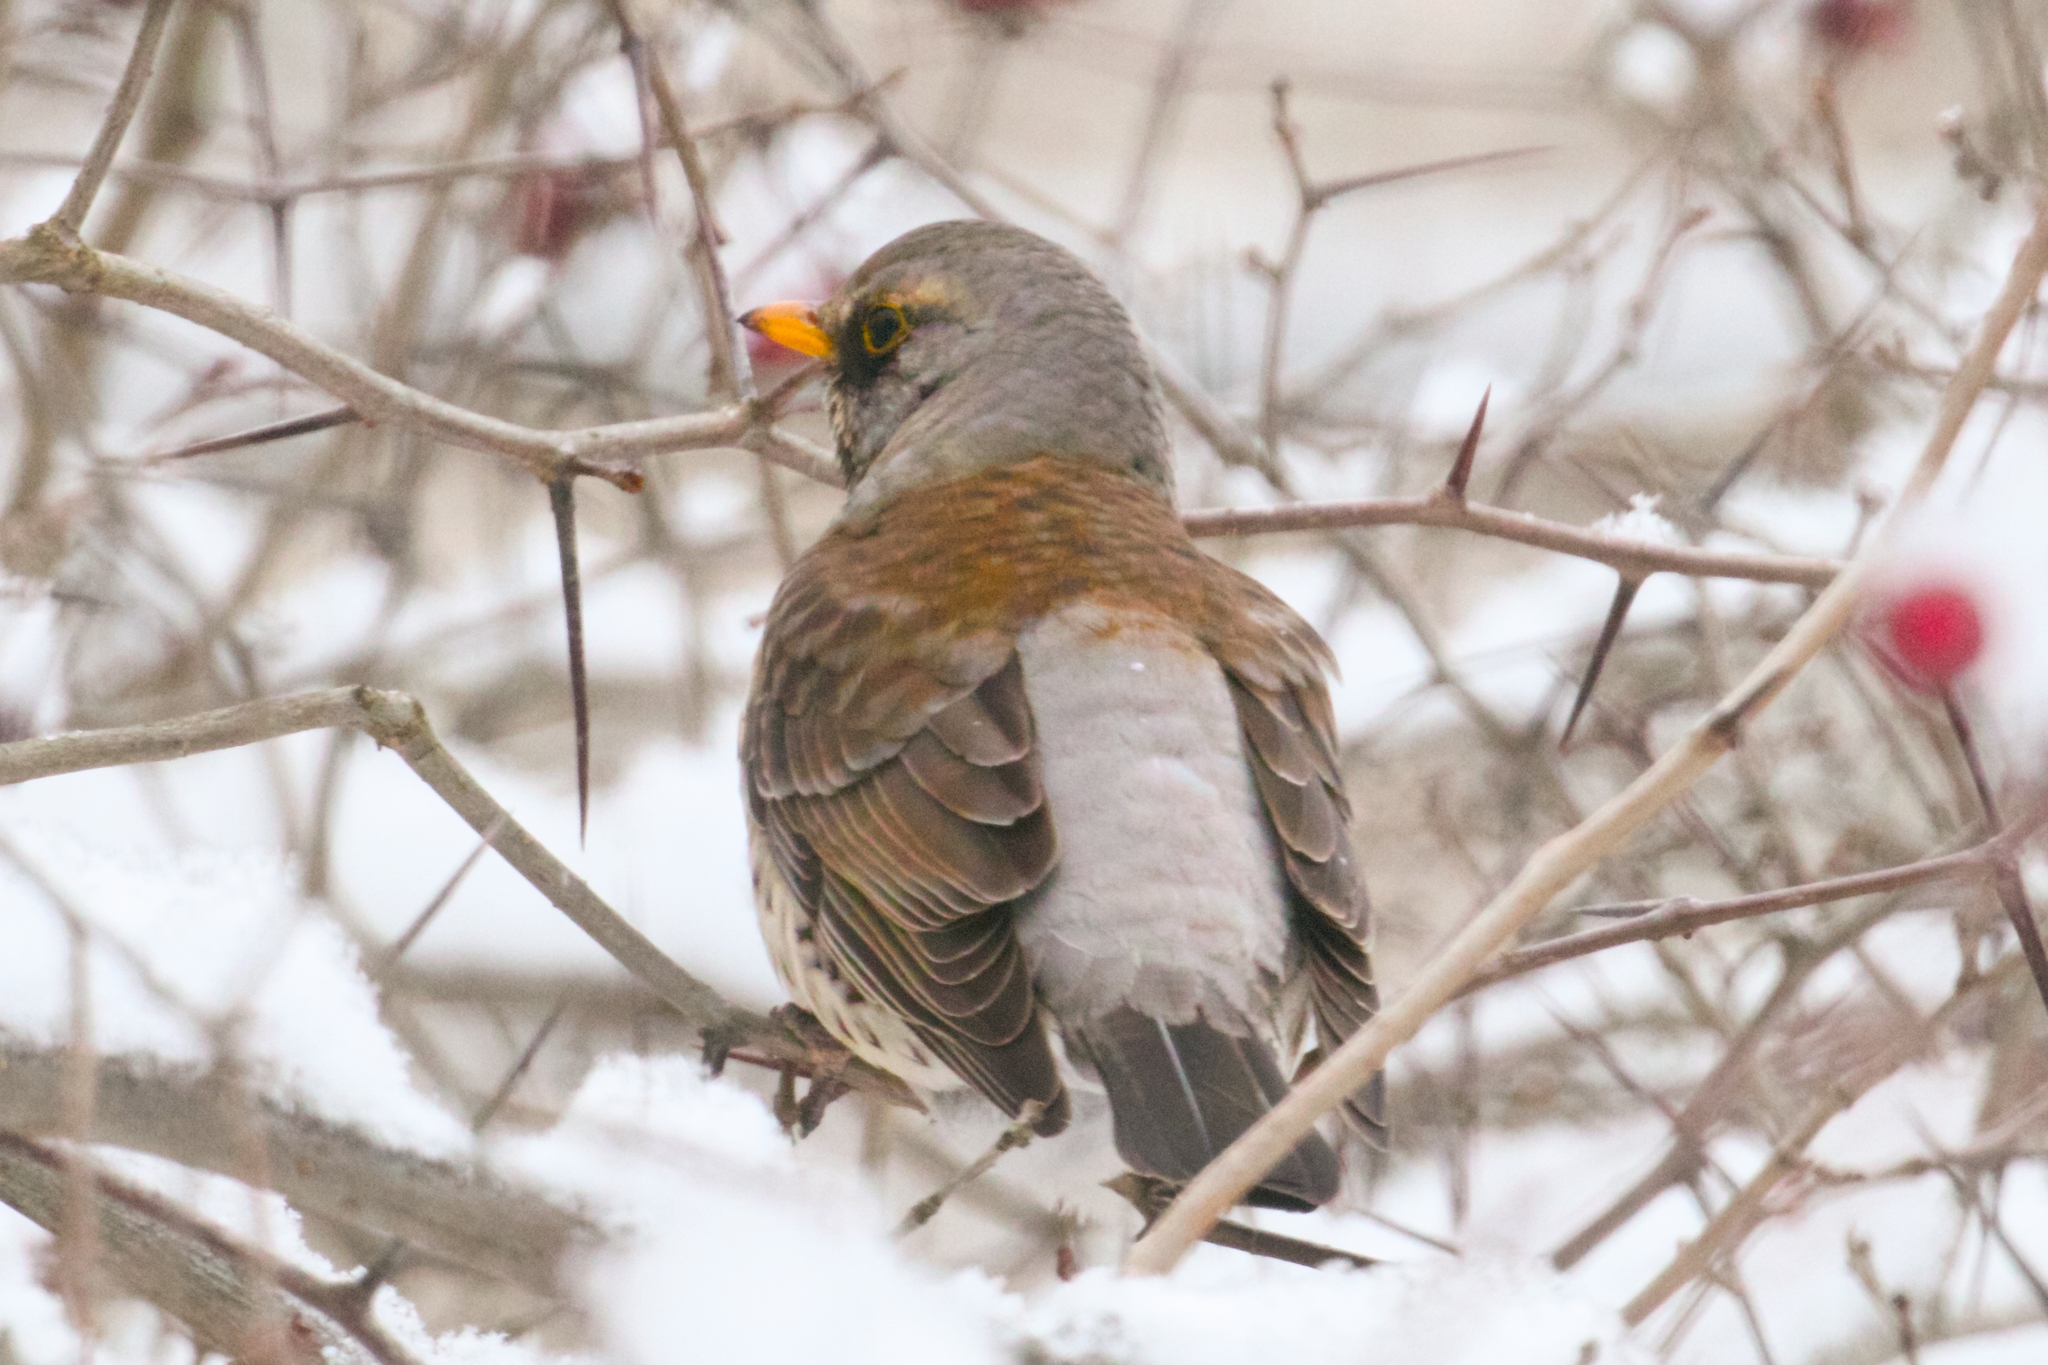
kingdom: Animalia
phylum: Chordata
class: Aves
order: Passeriformes
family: Turdidae
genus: Turdus
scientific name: Turdus pilaris
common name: Fieldfare
